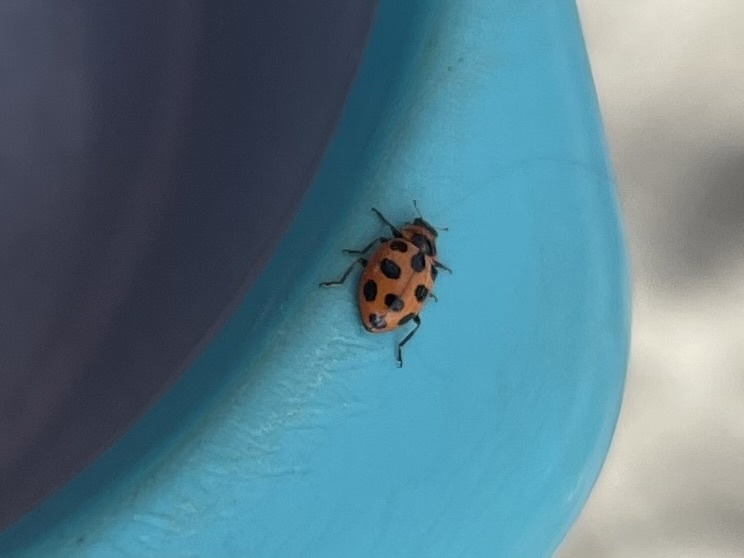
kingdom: Animalia
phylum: Arthropoda
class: Insecta
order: Coleoptera
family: Coccinellidae
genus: Naemia
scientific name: Naemia seriata
